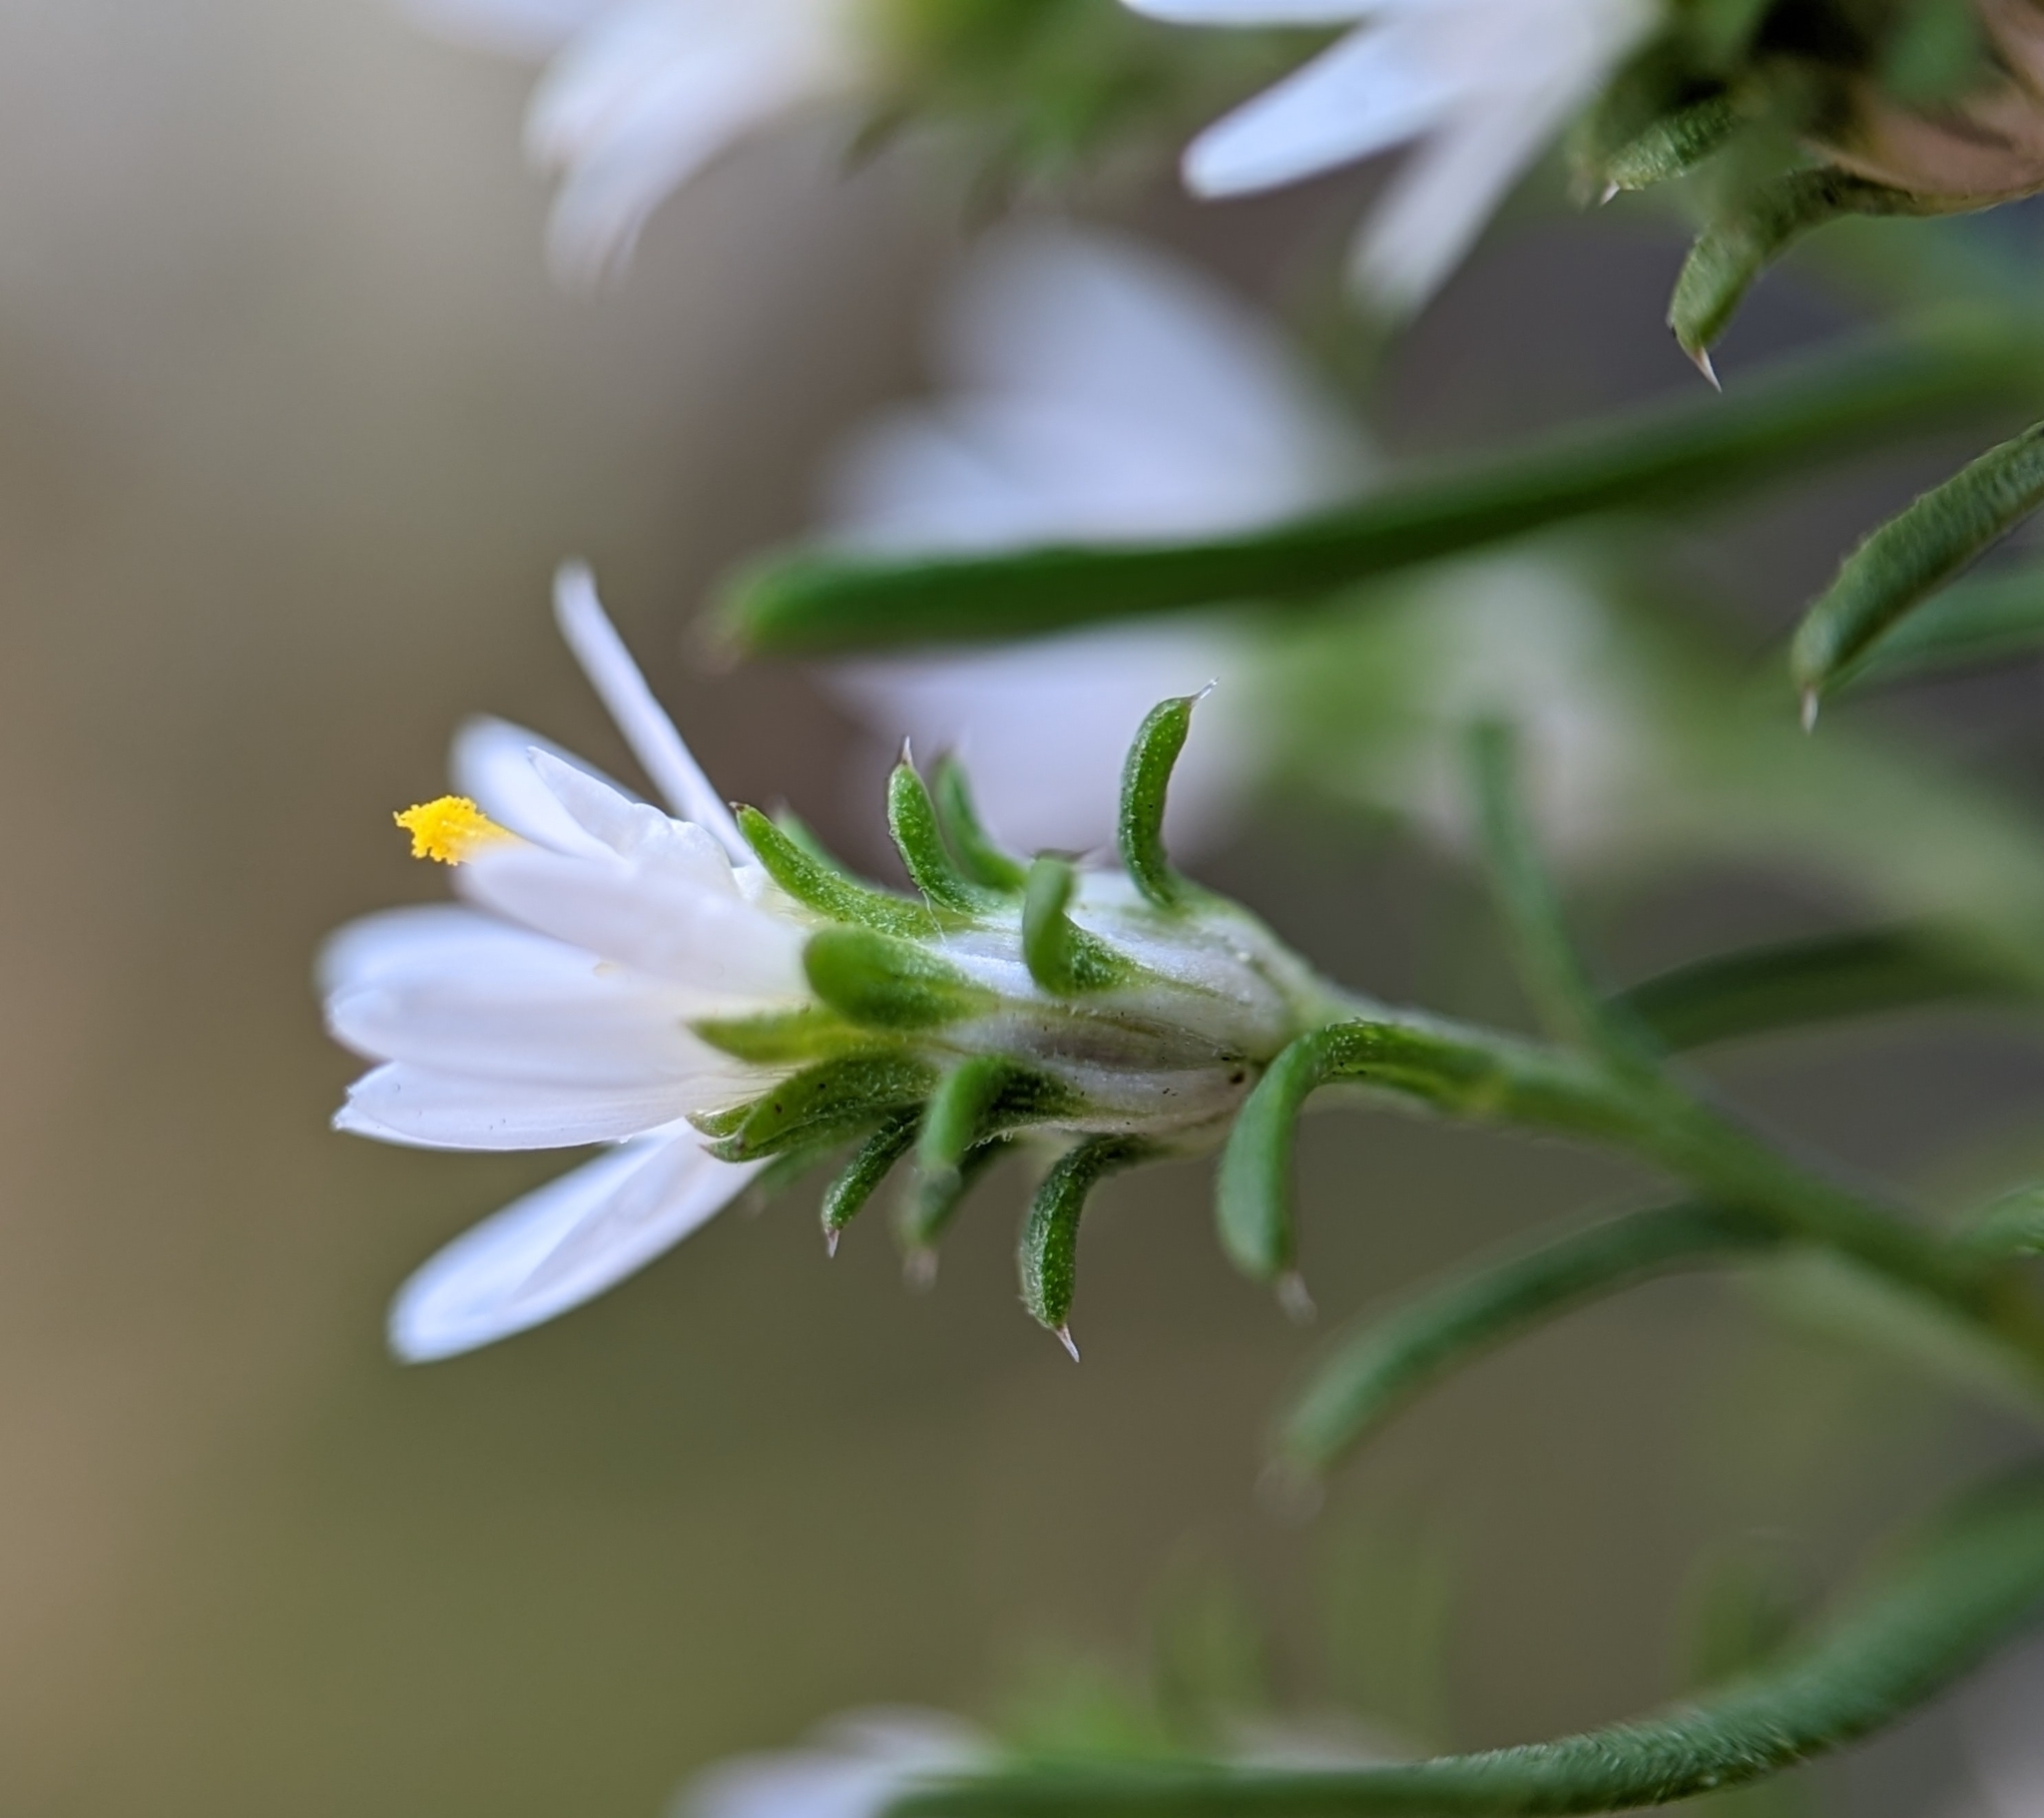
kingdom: Plantae
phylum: Tracheophyta
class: Magnoliopsida
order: Asterales
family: Asteraceae
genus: Symphyotrichum
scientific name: Symphyotrichum ericoides
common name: Heath aster
